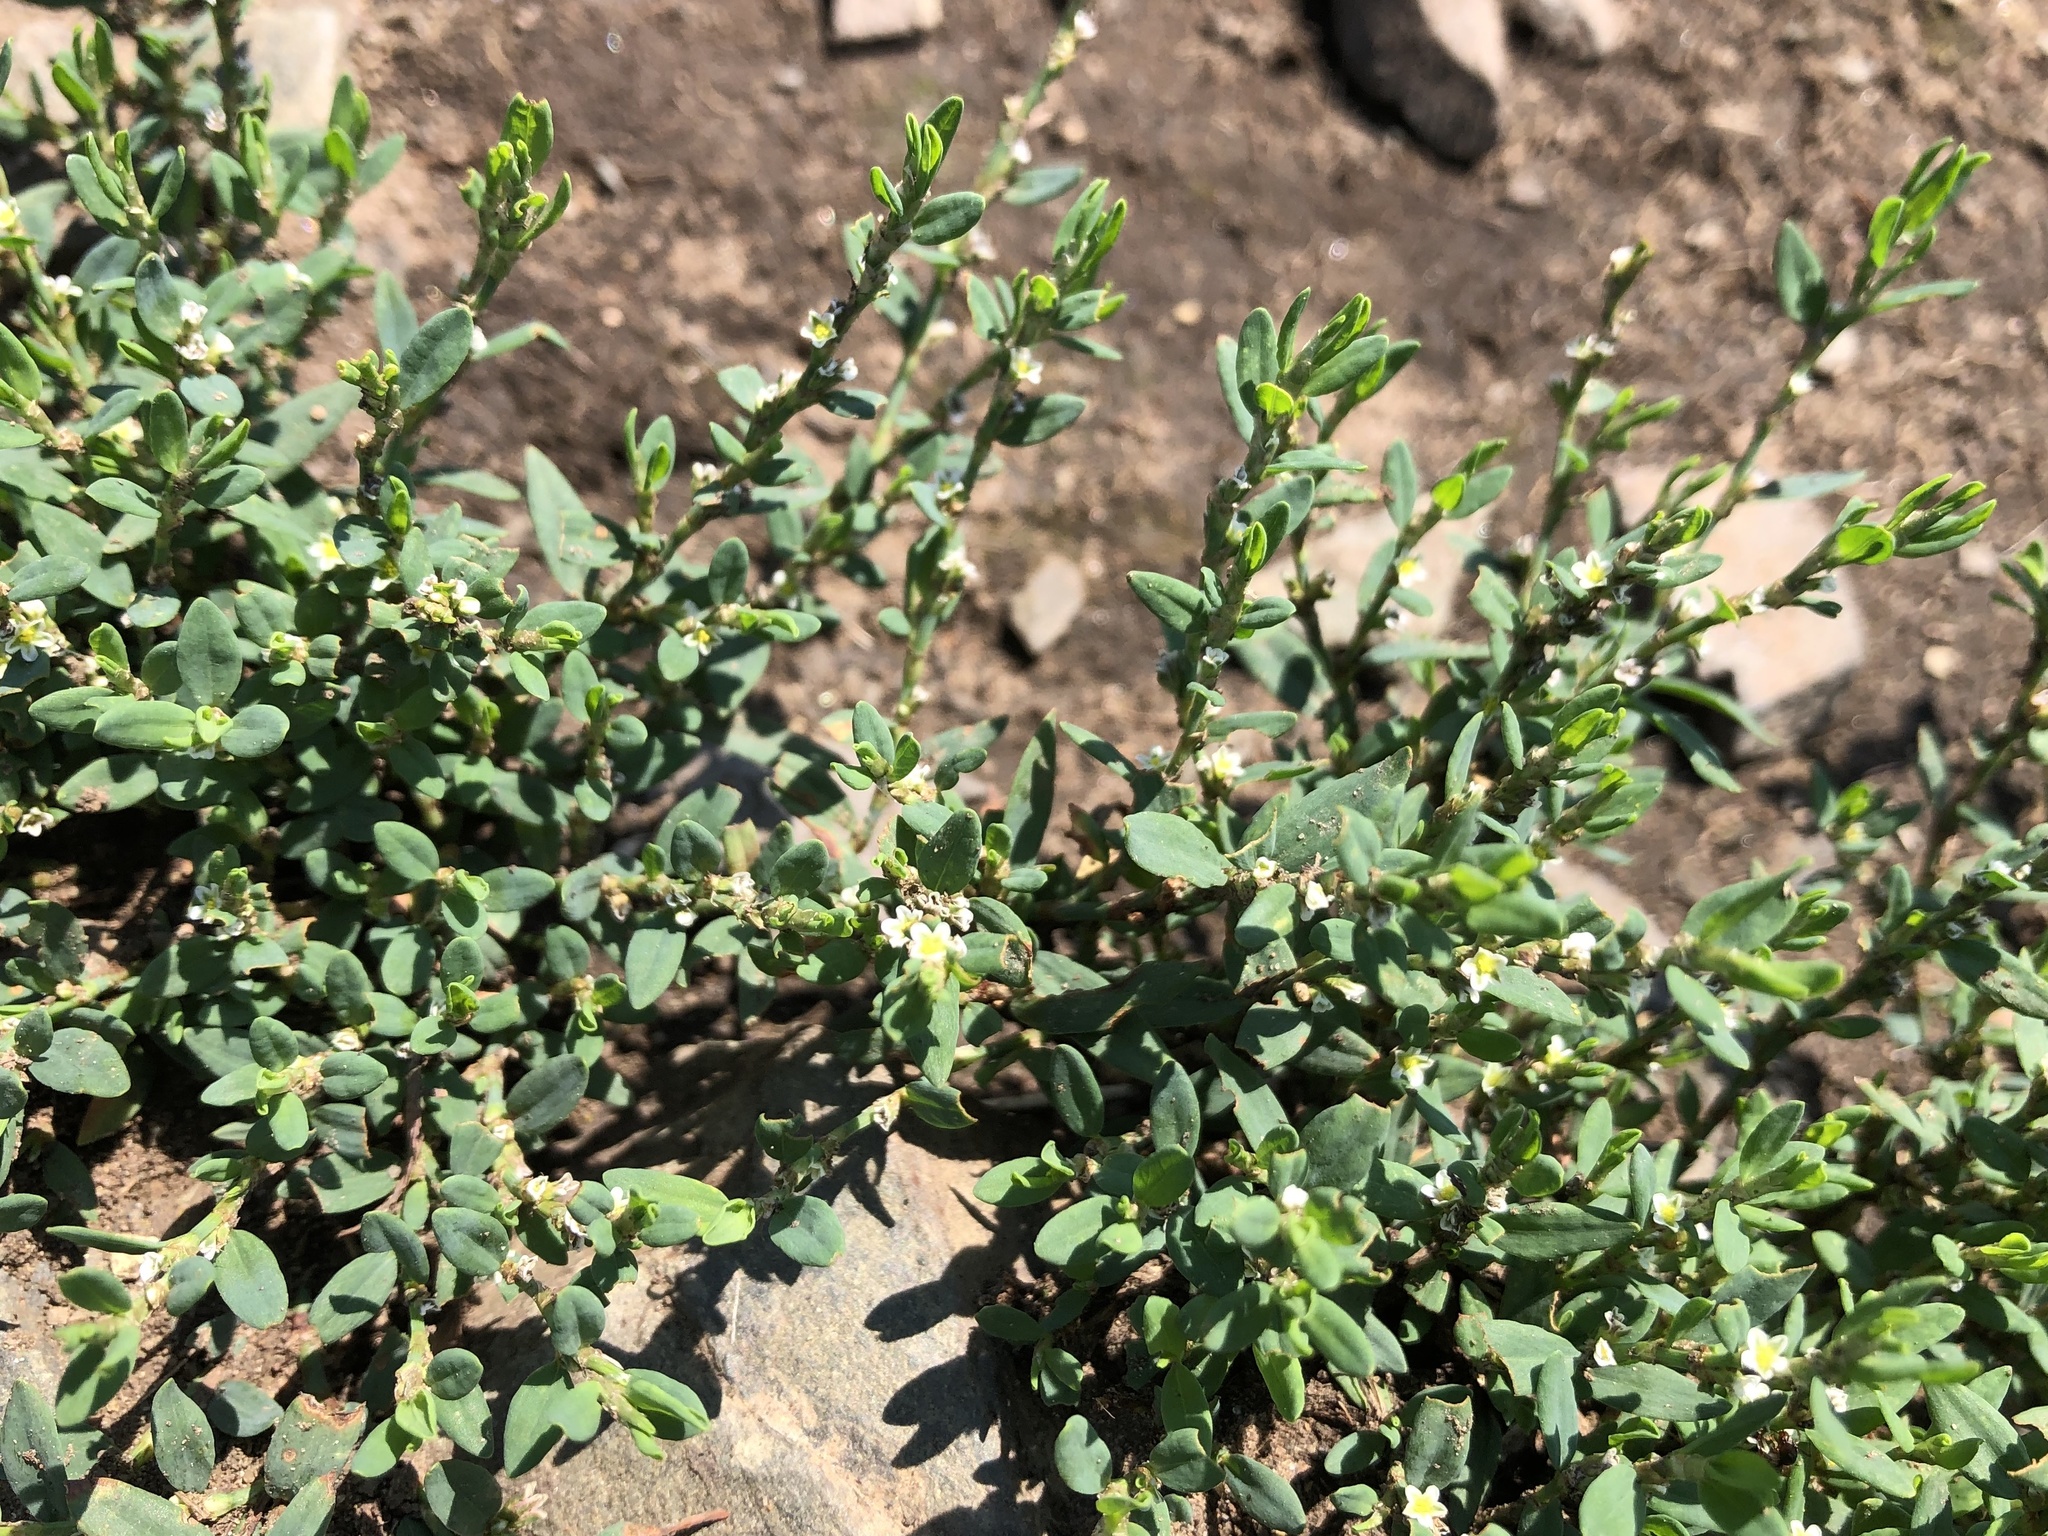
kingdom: Plantae
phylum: Tracheophyta
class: Magnoliopsida
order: Caryophyllales
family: Polygonaceae
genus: Polygonum
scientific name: Polygonum
